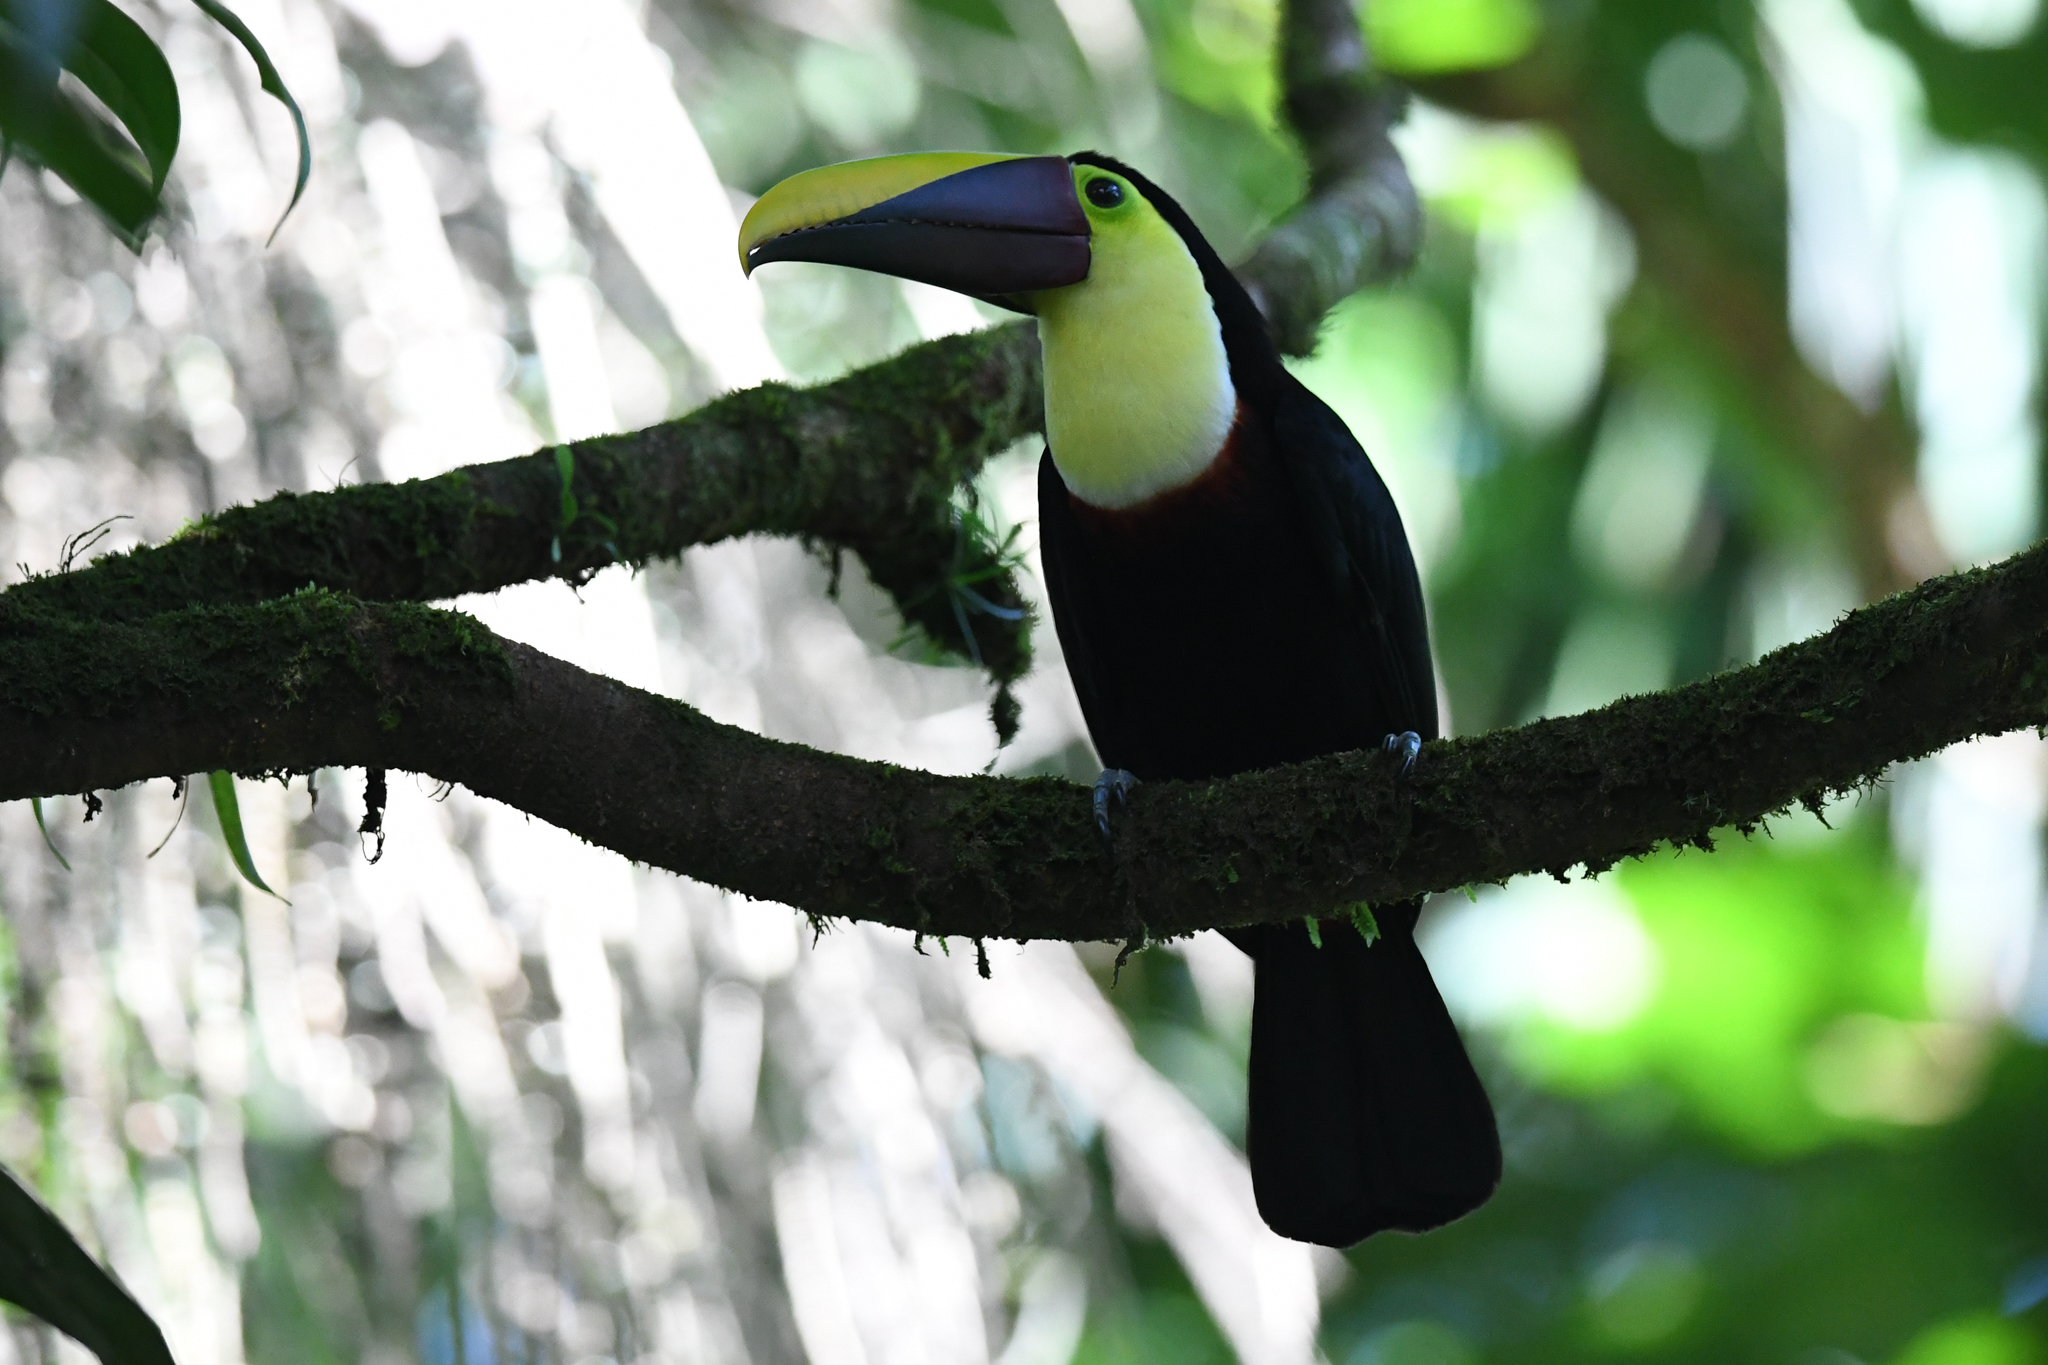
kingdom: Animalia
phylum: Chordata
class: Aves
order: Piciformes
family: Ramphastidae
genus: Ramphastos
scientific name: Ramphastos ambiguus
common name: Yellow-throated toucan
